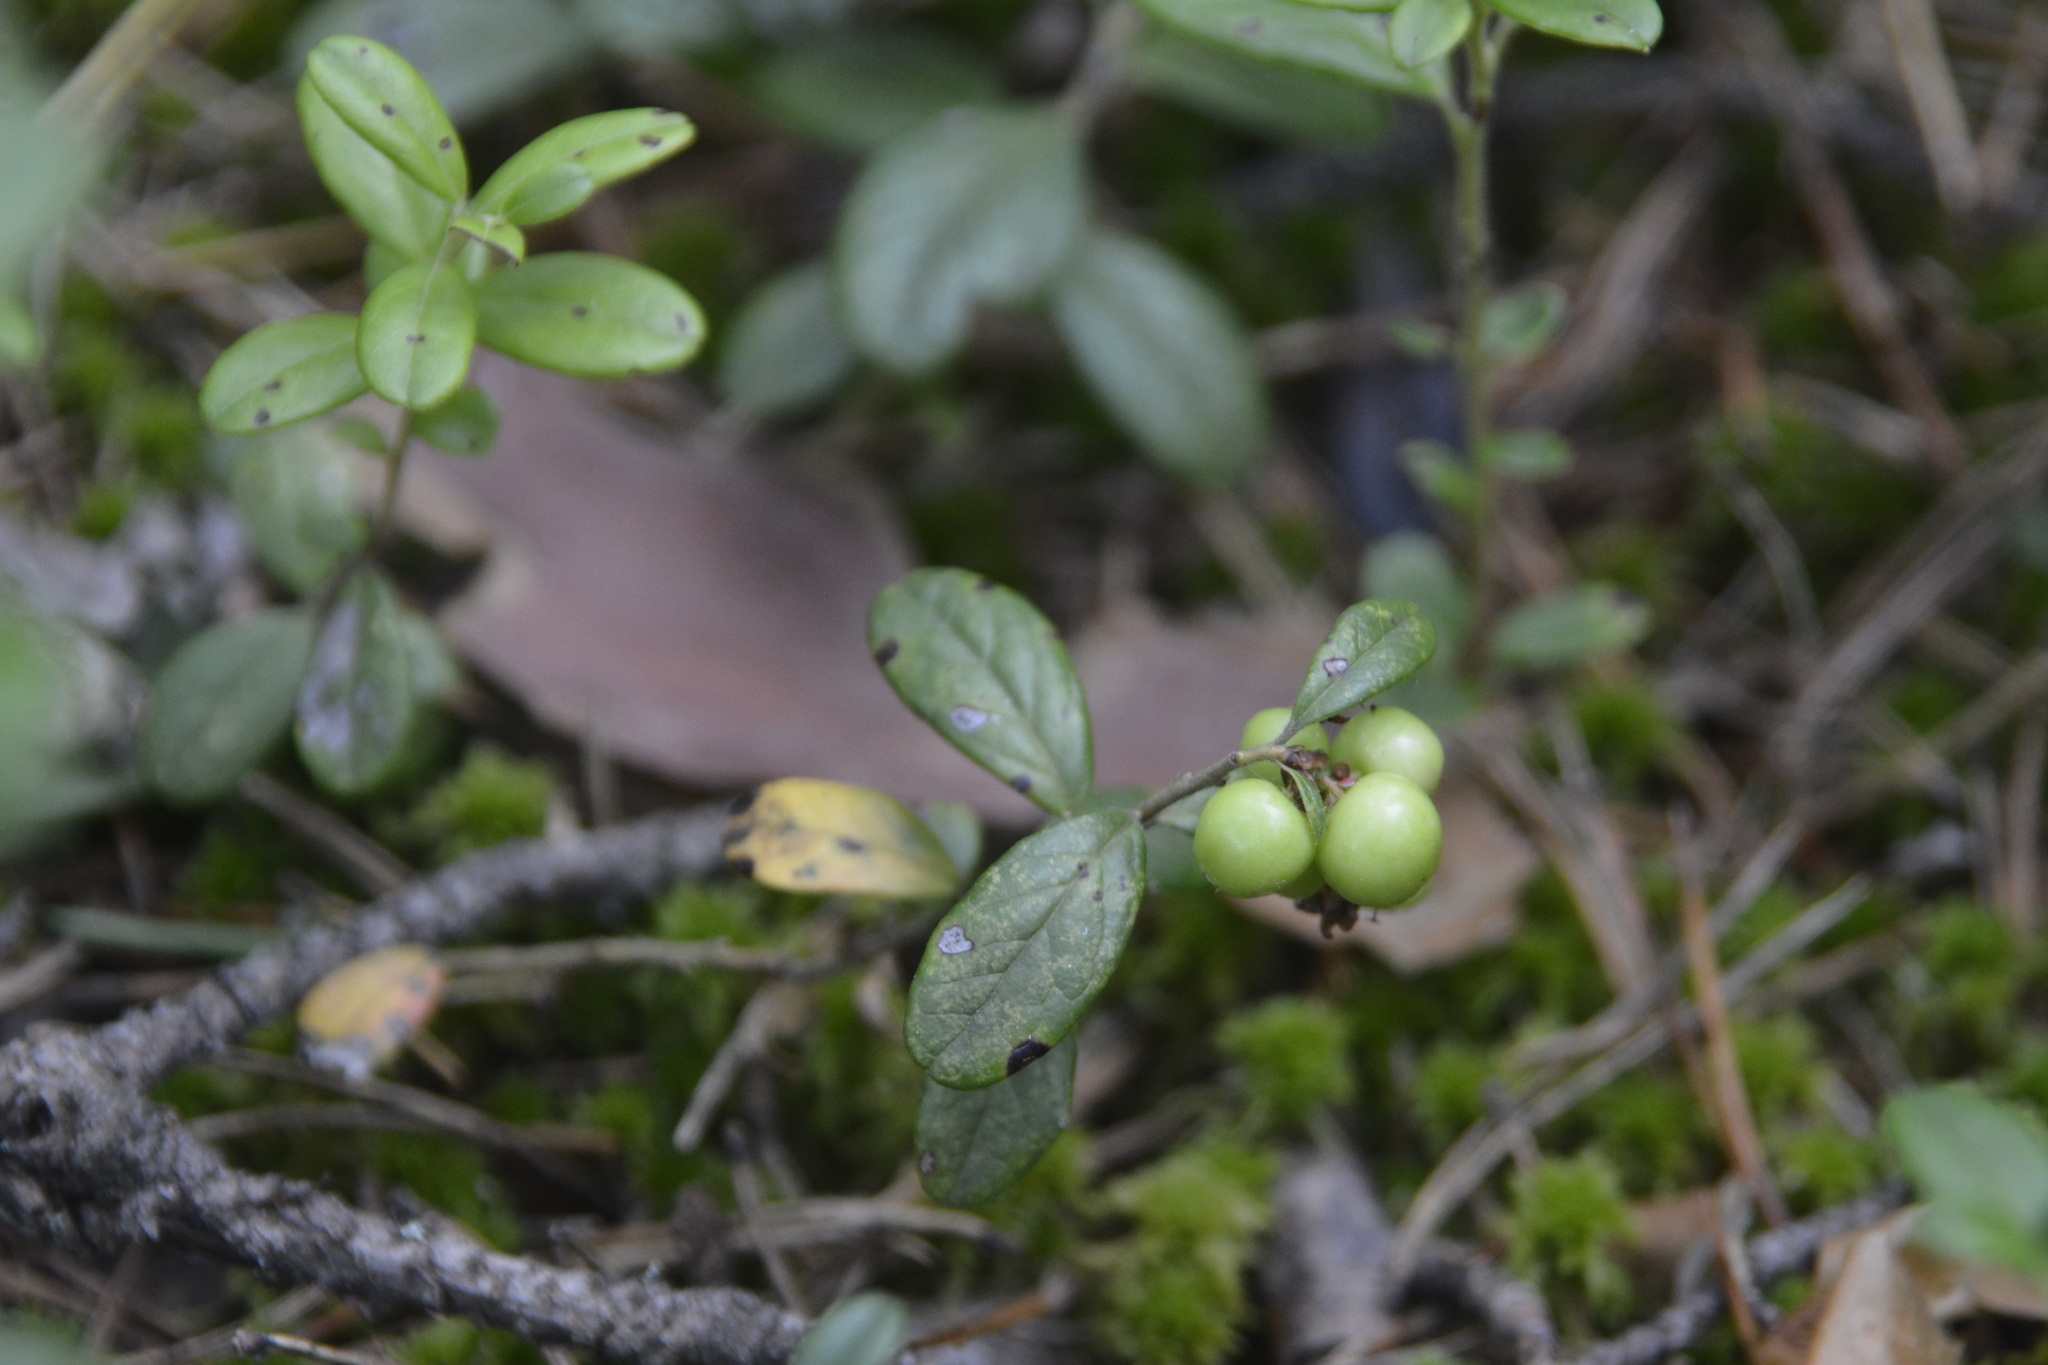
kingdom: Plantae
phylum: Tracheophyta
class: Magnoliopsida
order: Ericales
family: Ericaceae
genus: Vaccinium
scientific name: Vaccinium vitis-idaea
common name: Cowberry
